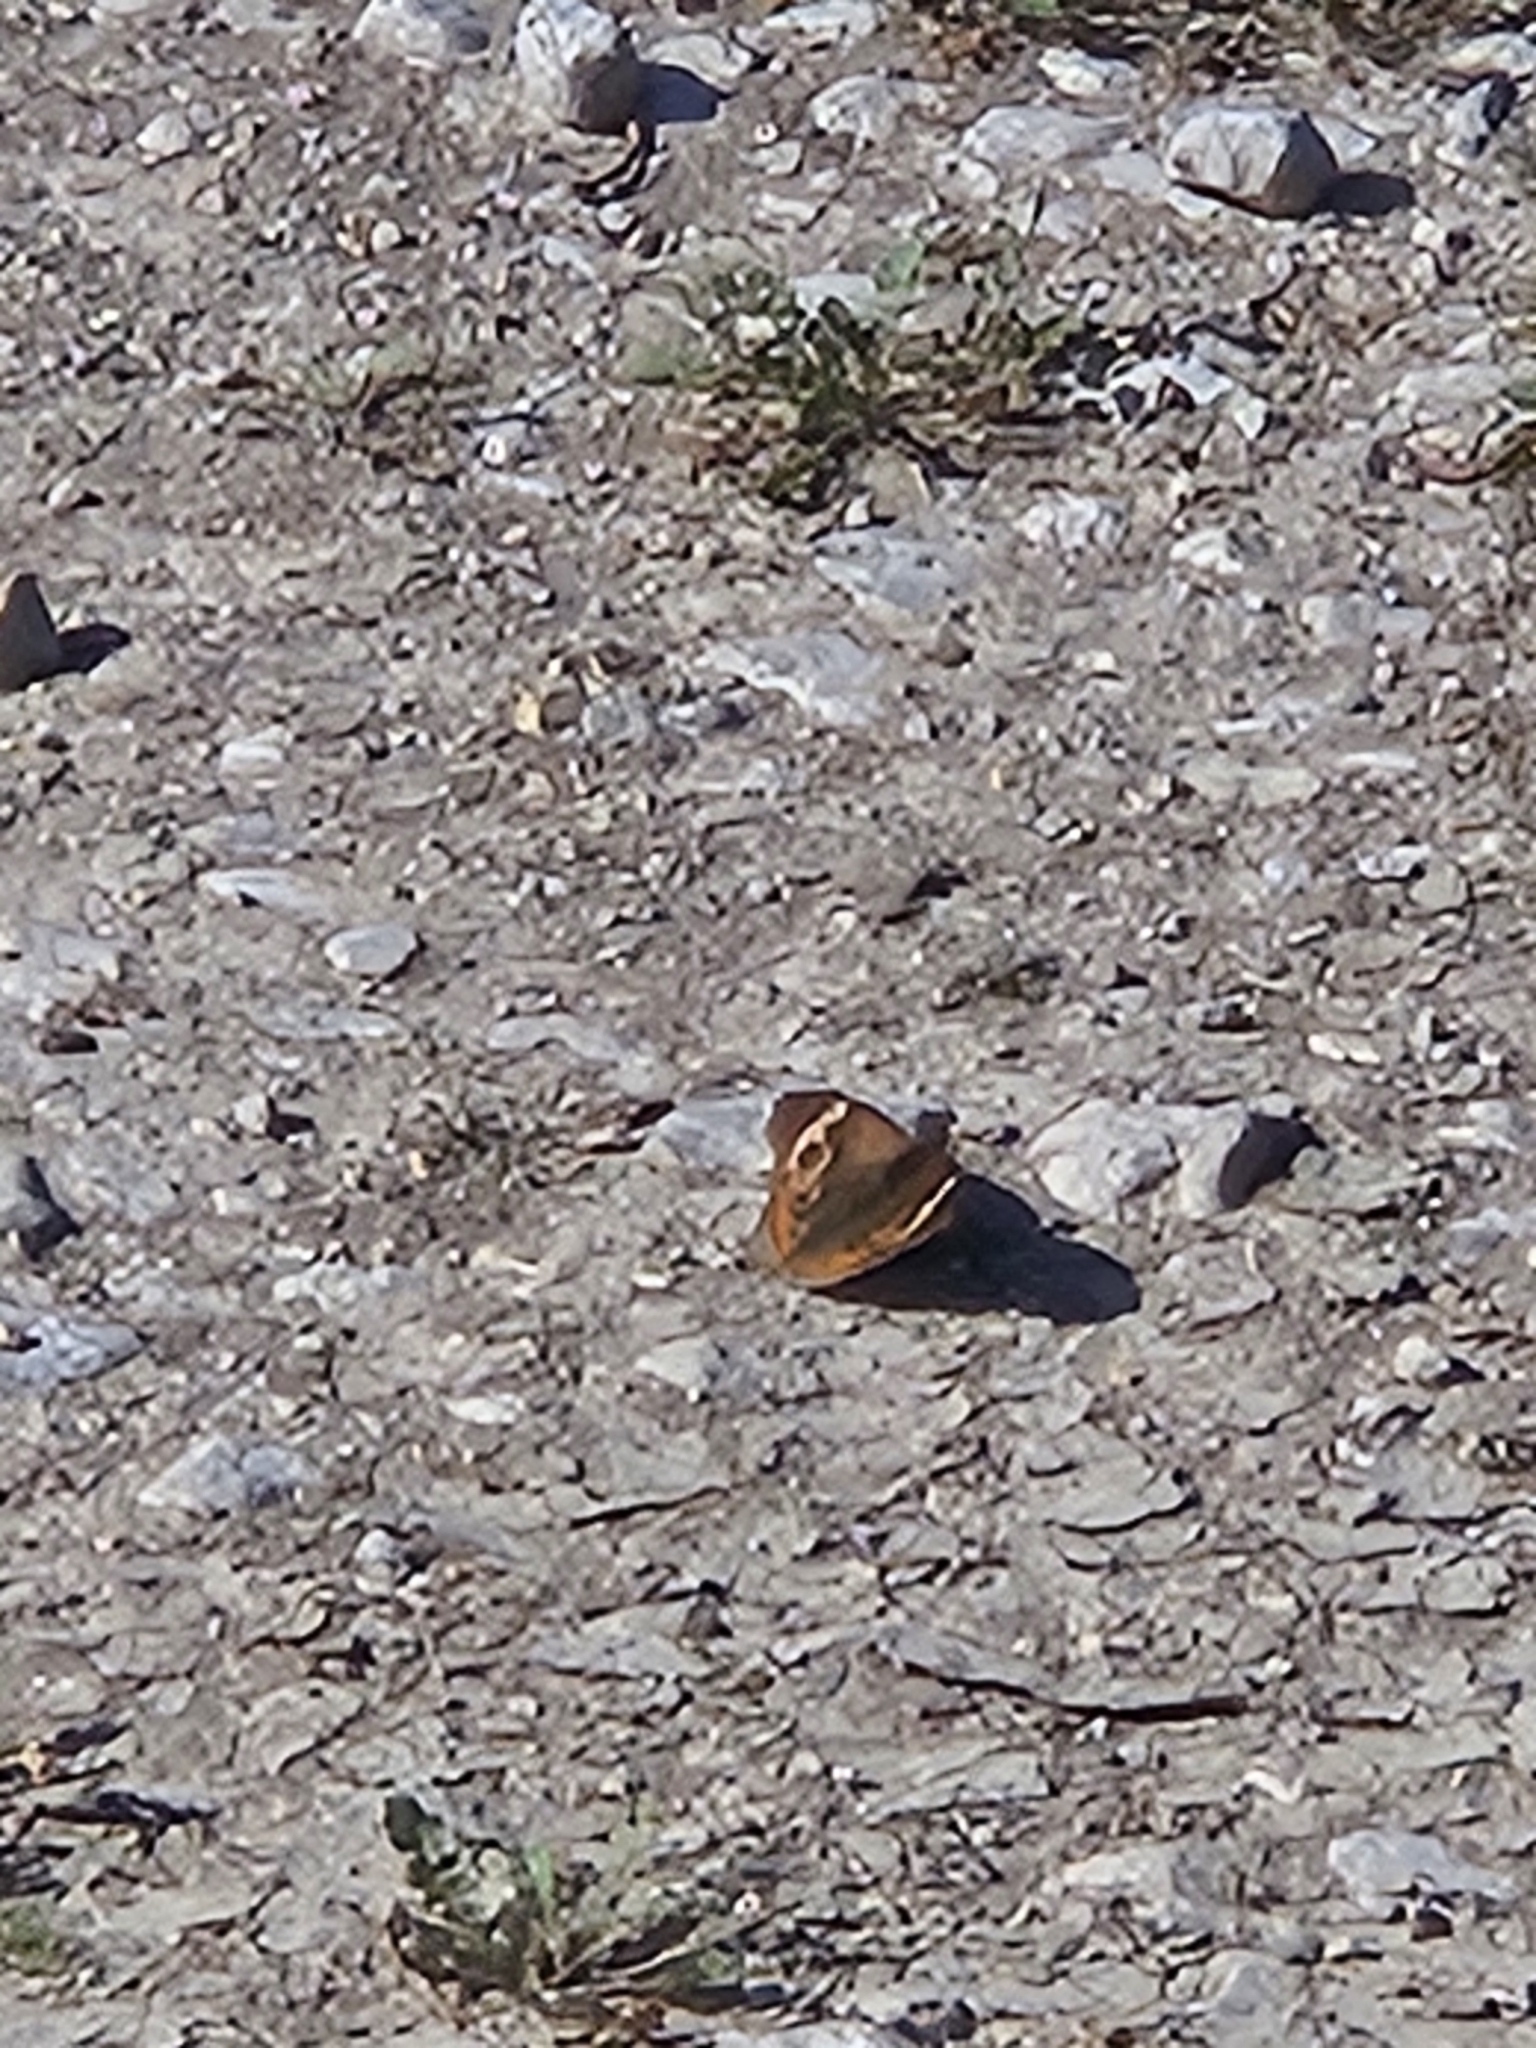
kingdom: Animalia
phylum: Arthropoda
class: Insecta
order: Lepidoptera
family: Nymphalidae
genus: Junonia
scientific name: Junonia coenia
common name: Common buckeye
